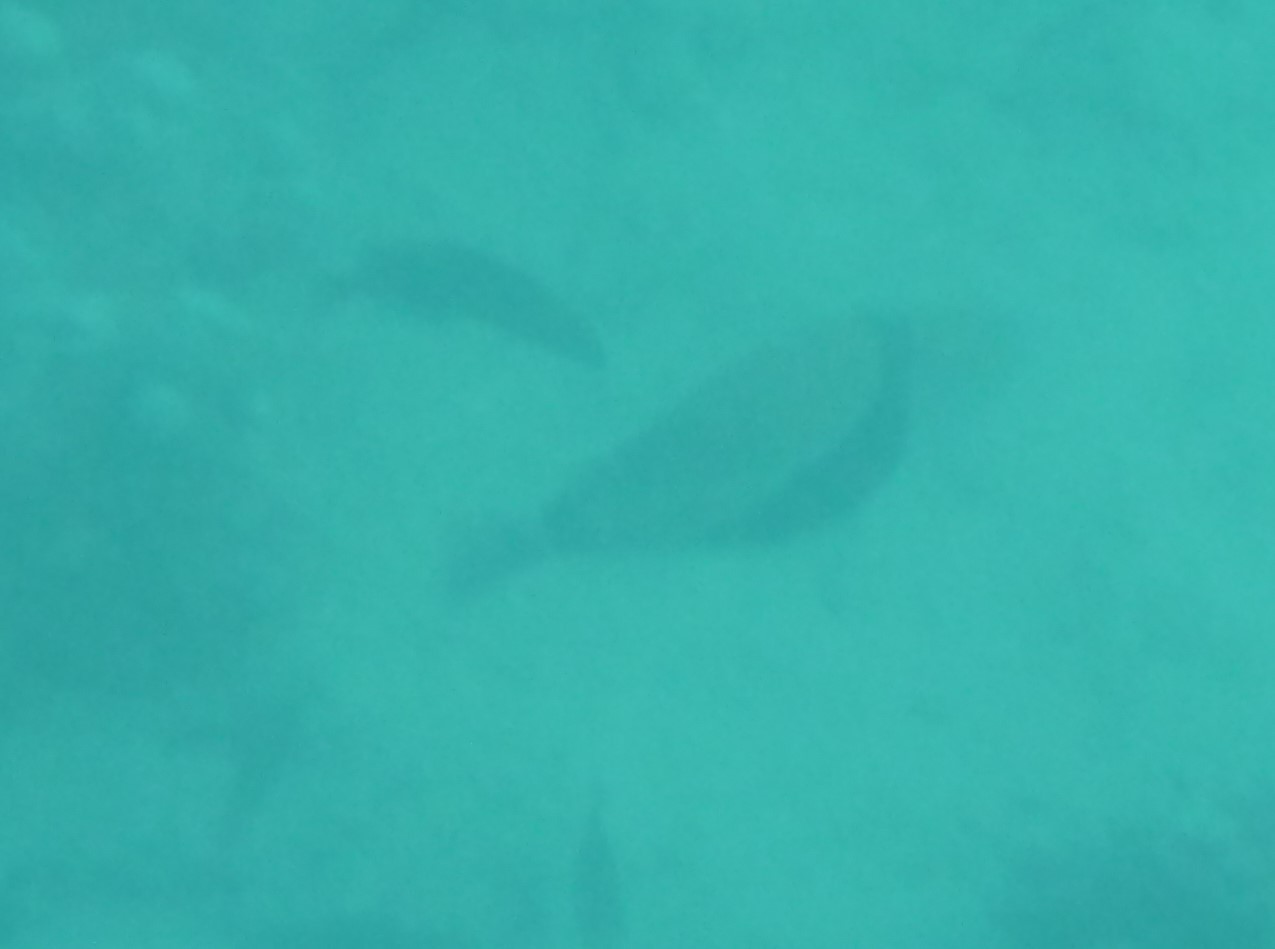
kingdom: Animalia
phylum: Chordata
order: Tetraodontiformes
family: Balistidae
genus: Rhinecanthus
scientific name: Rhinecanthus rectangulus
